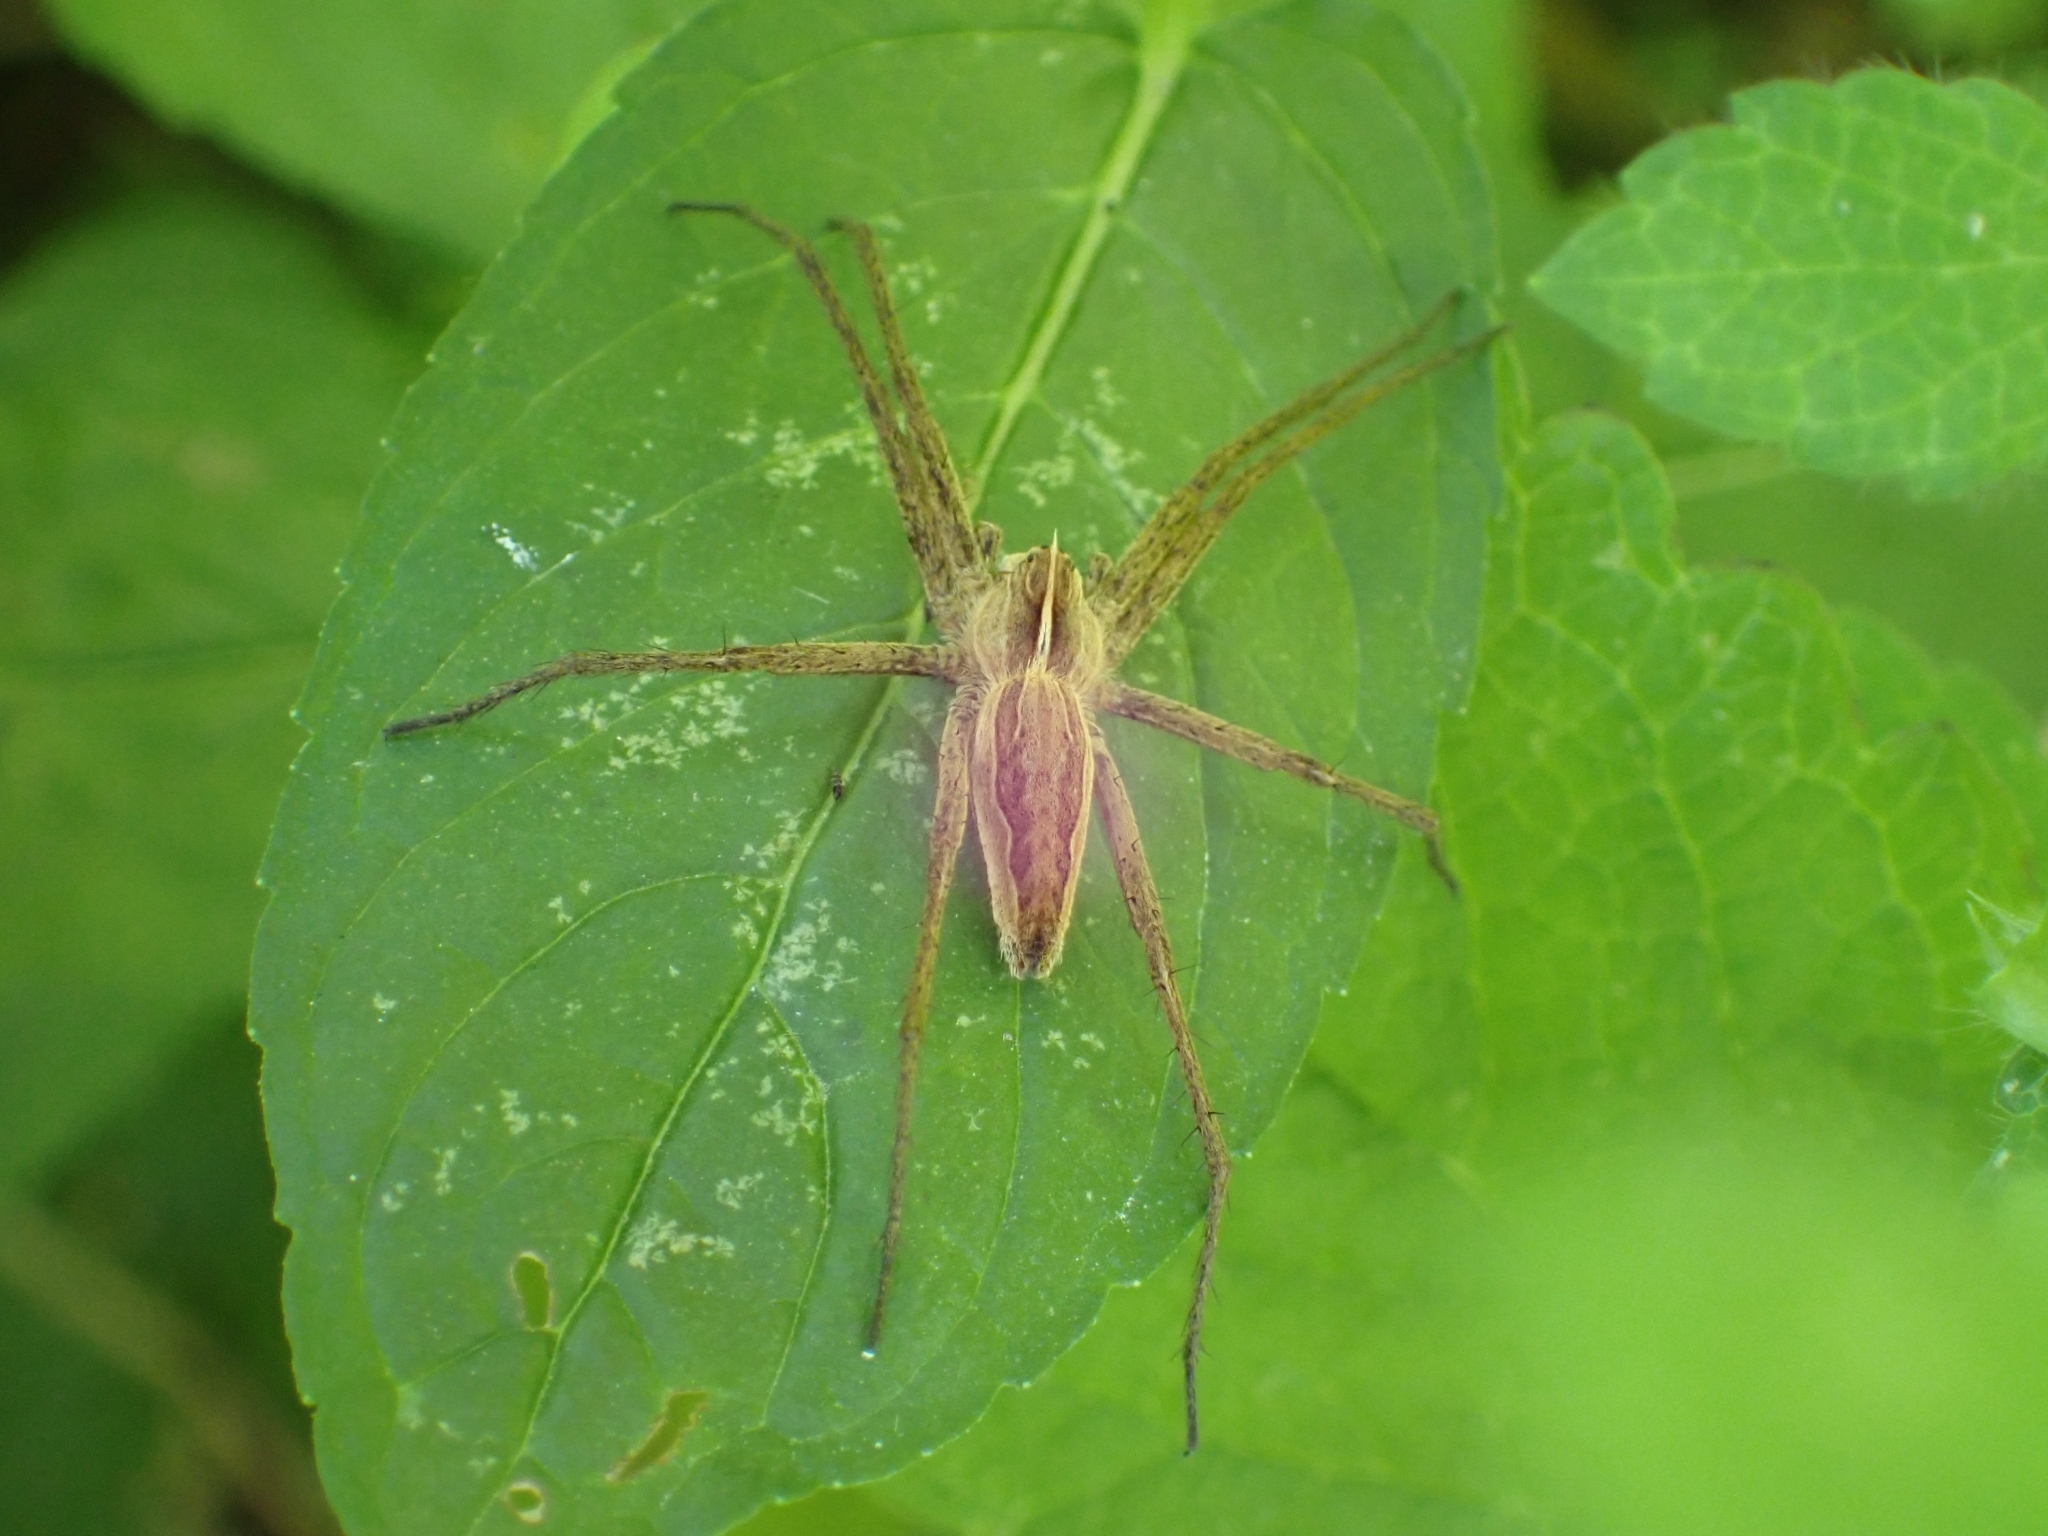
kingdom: Animalia
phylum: Arthropoda
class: Arachnida
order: Araneae
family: Pisauridae
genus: Pisaura
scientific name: Pisaura mirabilis
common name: Tent spider
